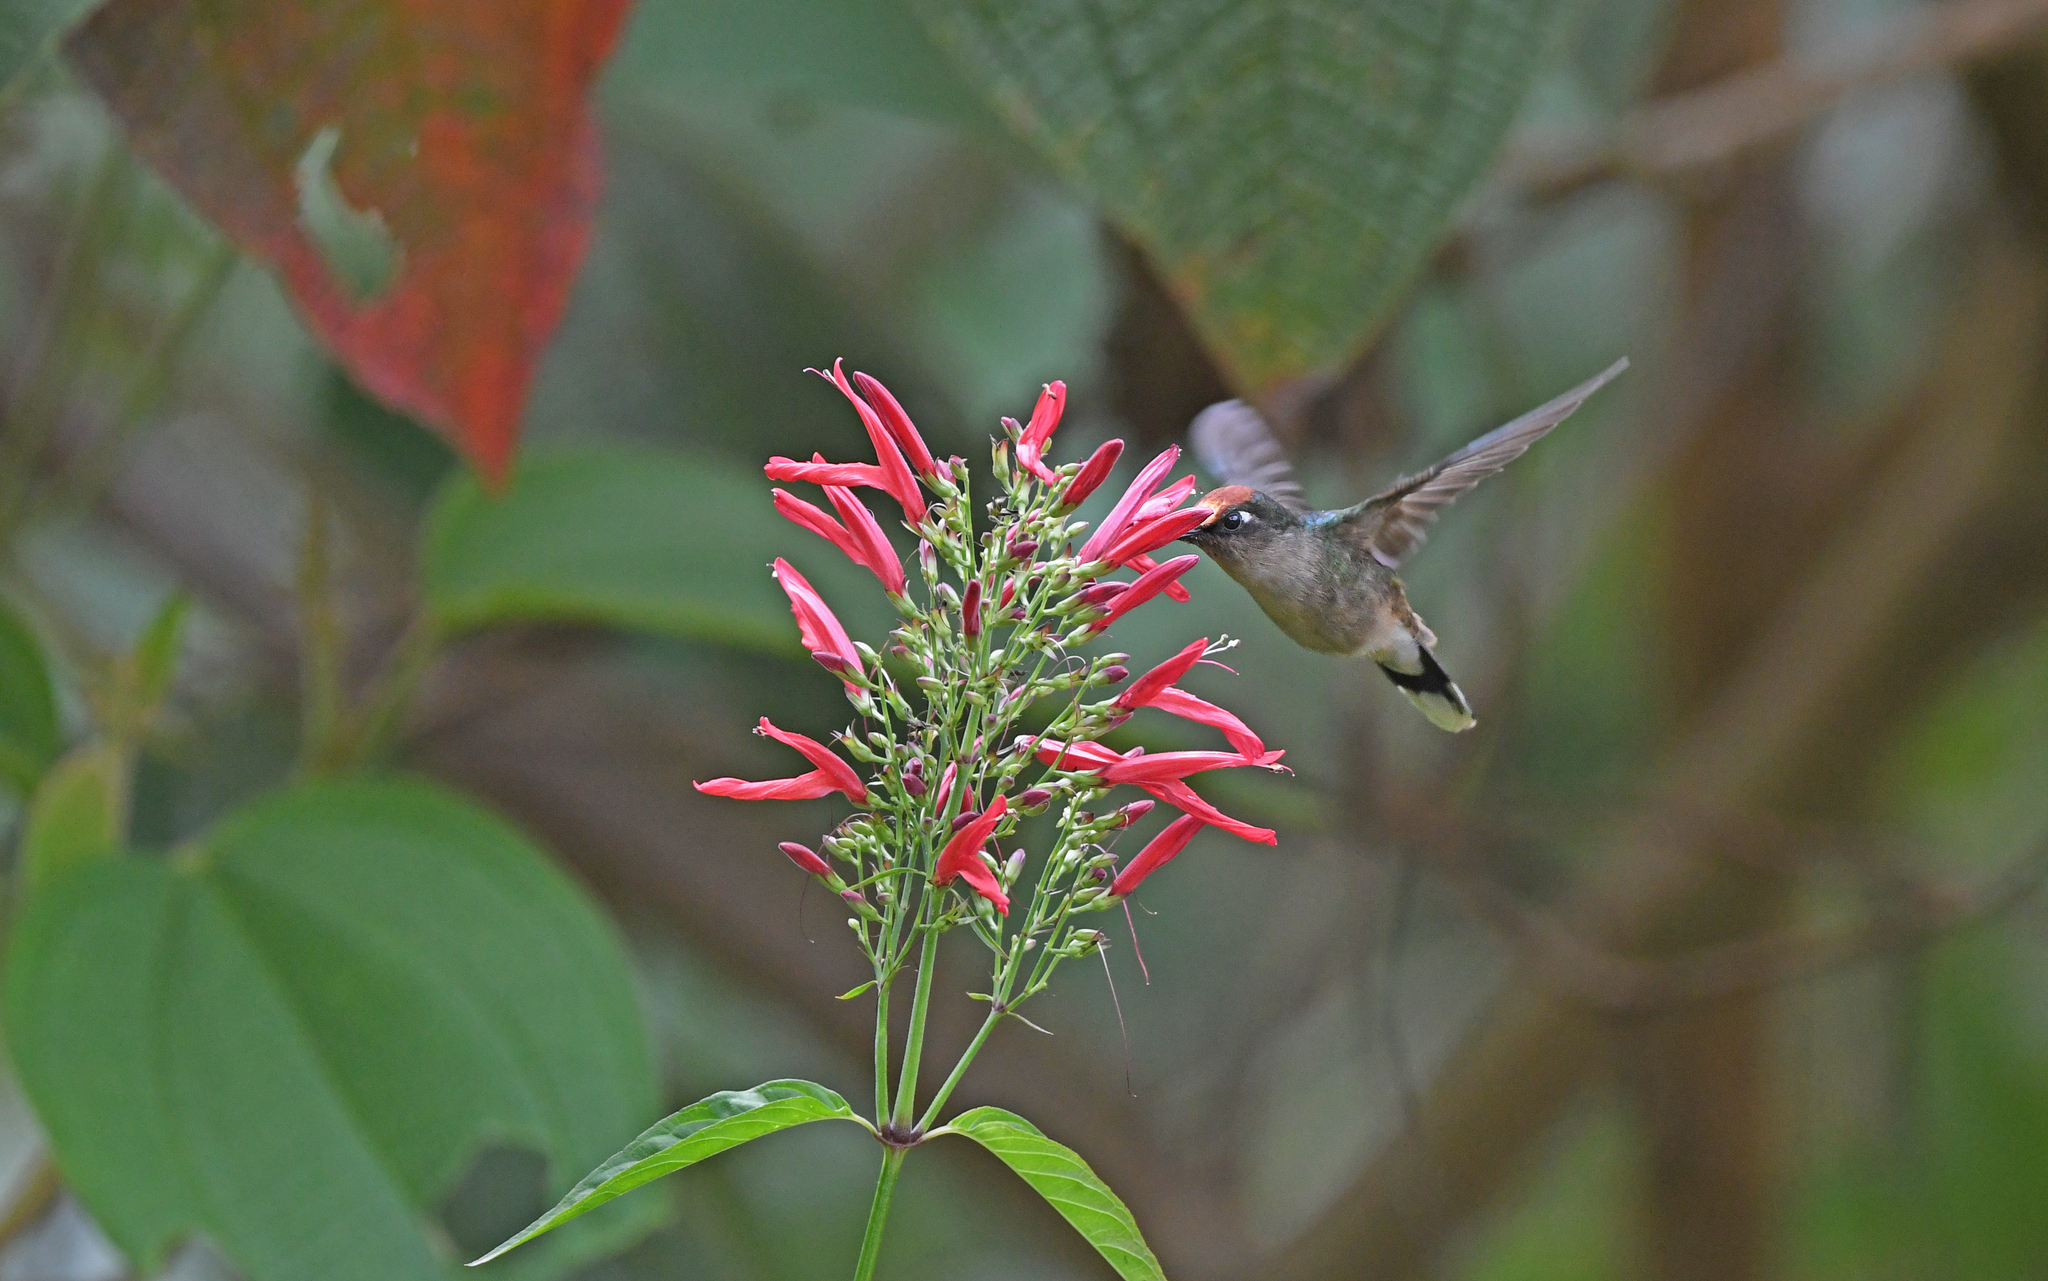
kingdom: Animalia
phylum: Chordata
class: Aves
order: Apodiformes
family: Trochilidae
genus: Anthocephala
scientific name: Anthocephala berlepschi
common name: Tolima blossomcrown
